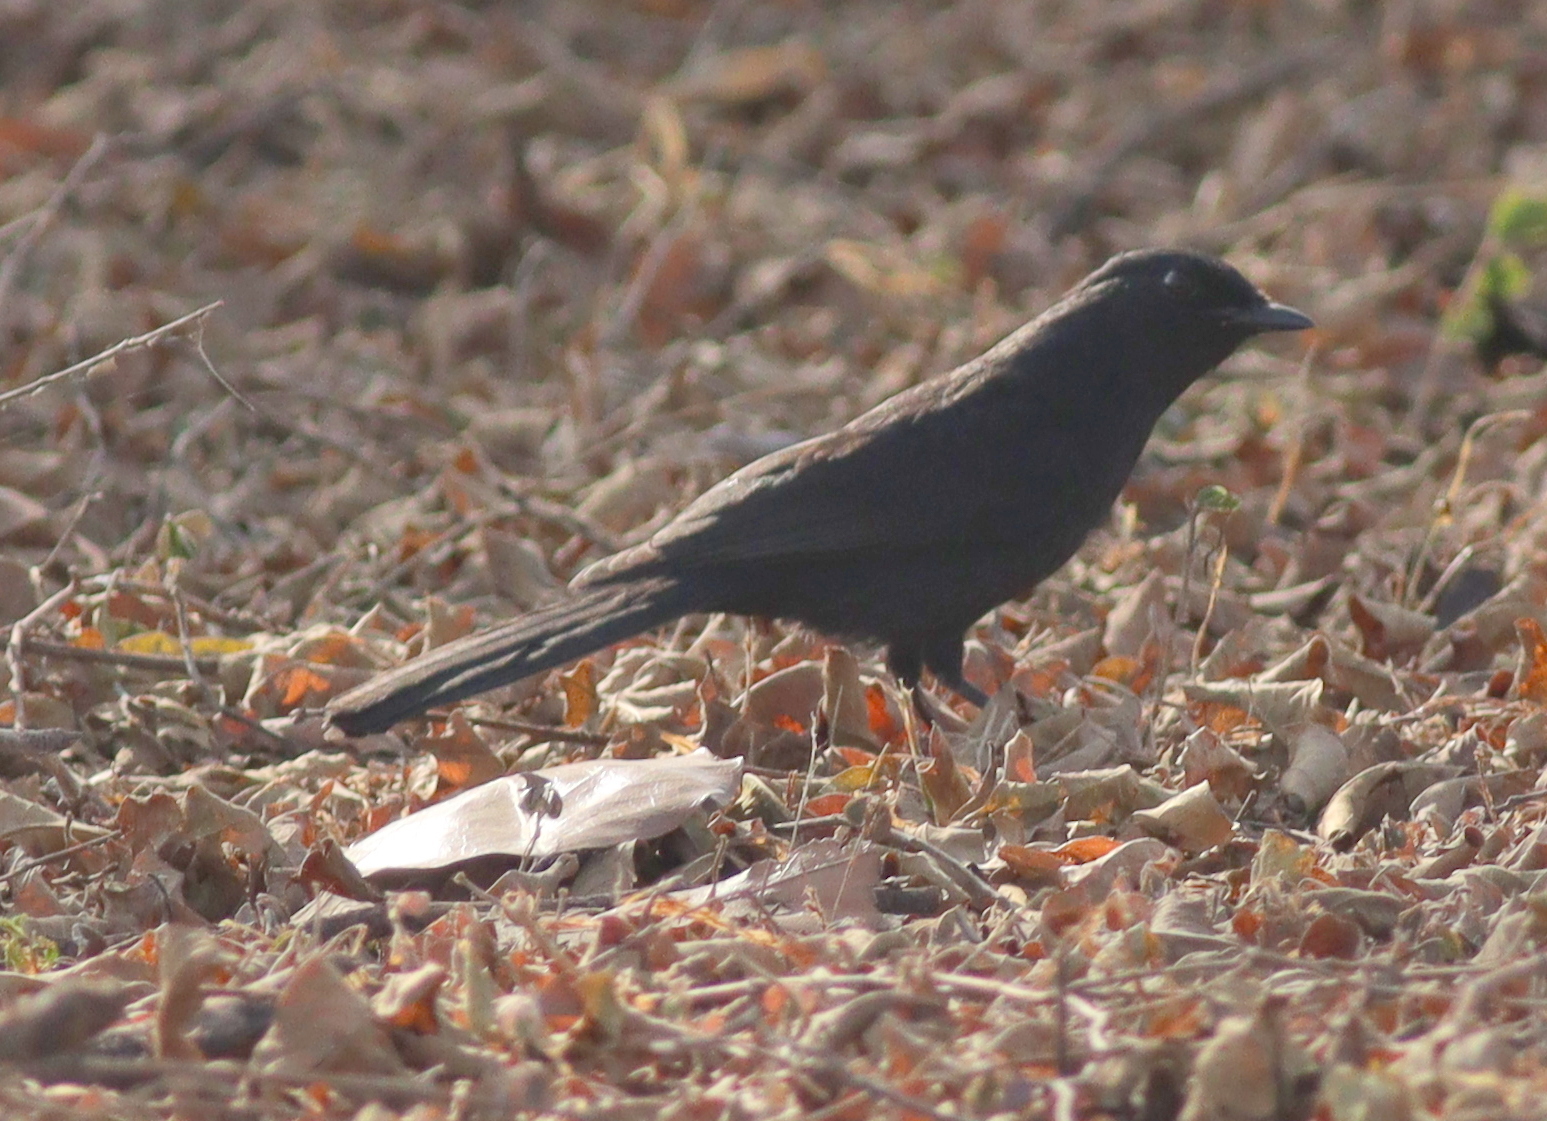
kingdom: Animalia
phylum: Chordata
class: Aves
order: Passeriformes
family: Muscicapidae
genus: Melaenornis
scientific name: Melaenornis edolioides
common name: Northern black flycatcher
